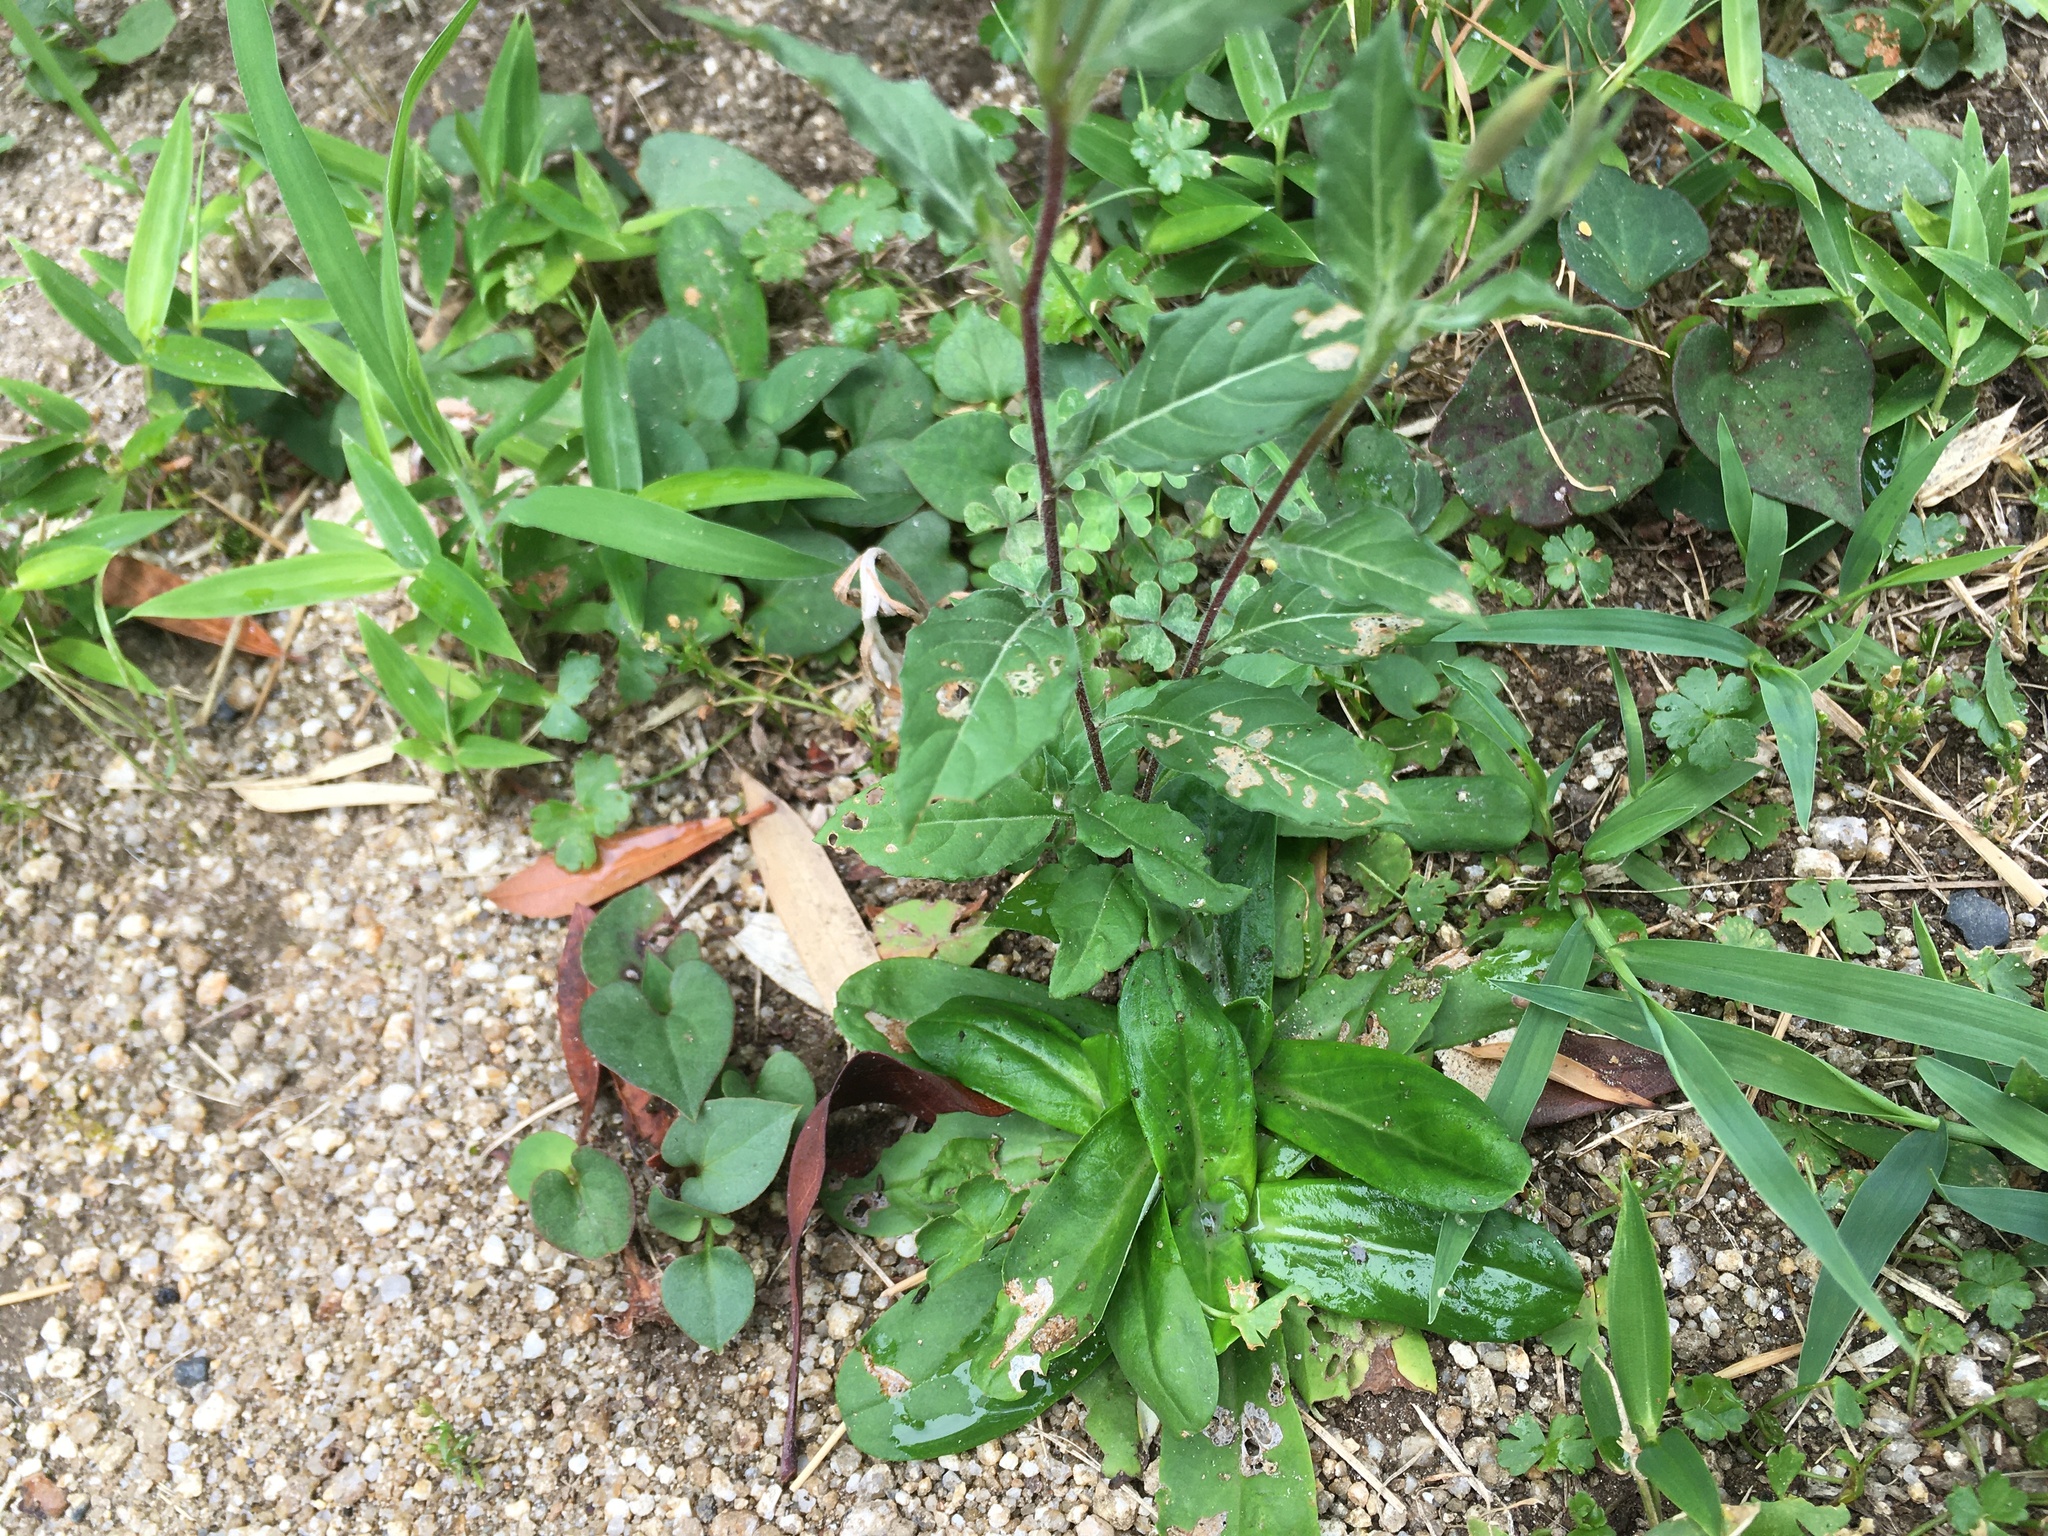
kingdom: Plantae
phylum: Tracheophyta
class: Magnoliopsida
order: Myrtales
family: Onagraceae
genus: Oenothera
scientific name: Oenothera rosea
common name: Rosy evening-primrose
